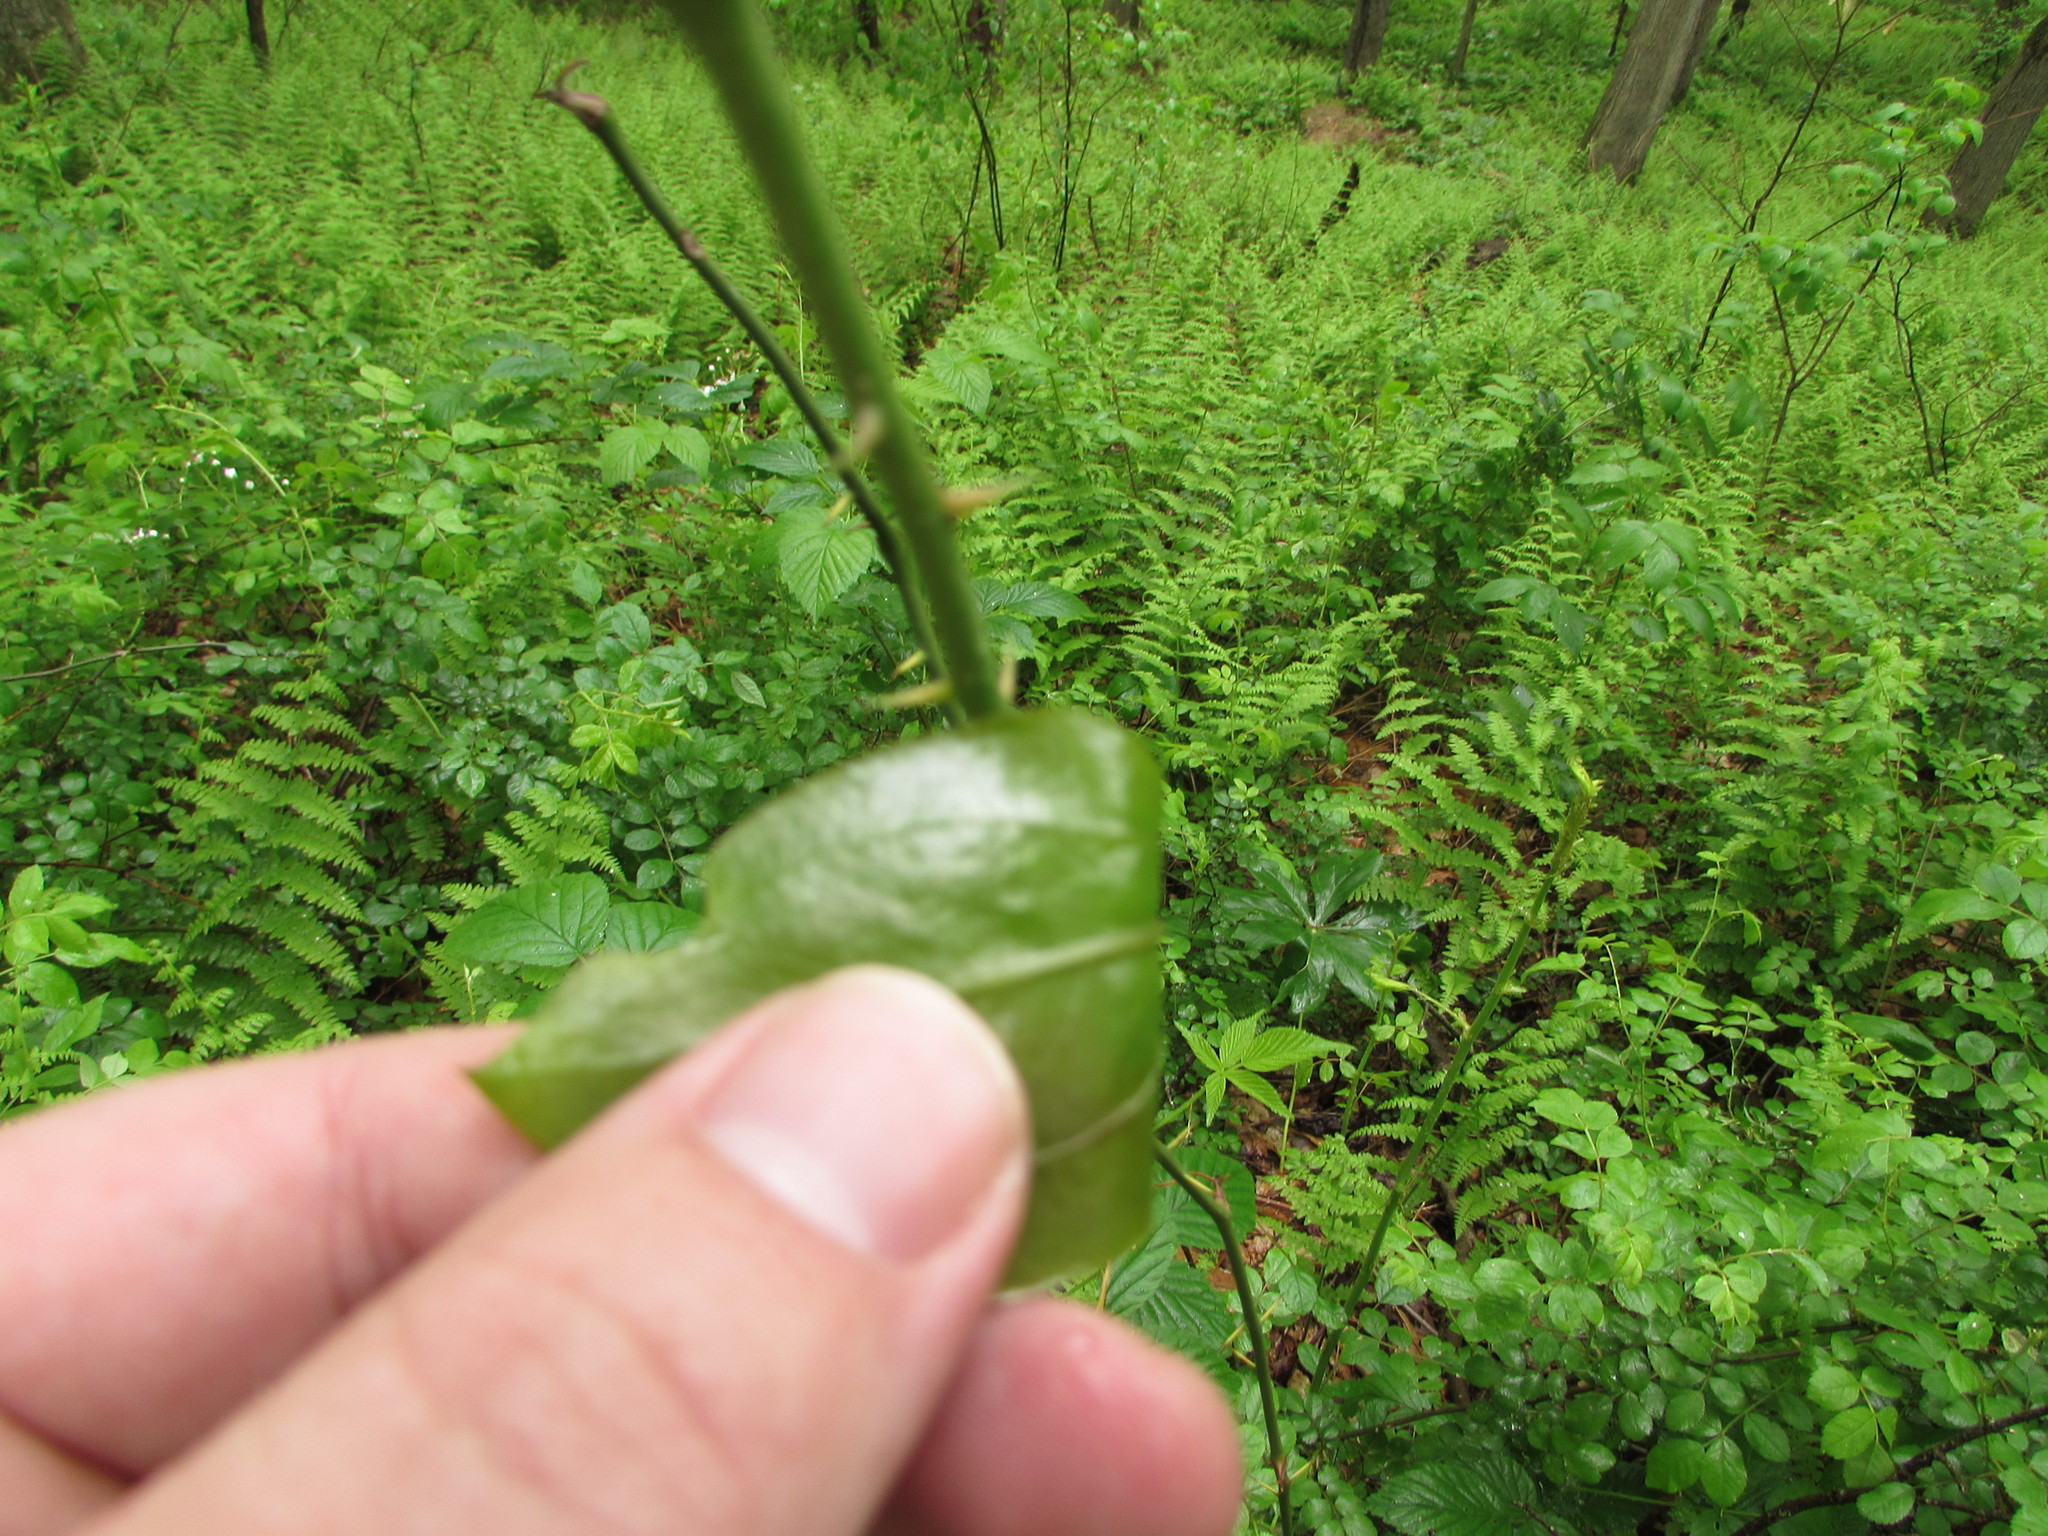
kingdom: Plantae
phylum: Tracheophyta
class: Liliopsida
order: Liliales
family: Smilacaceae
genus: Smilax
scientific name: Smilax rotundifolia
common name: Bullbriar
